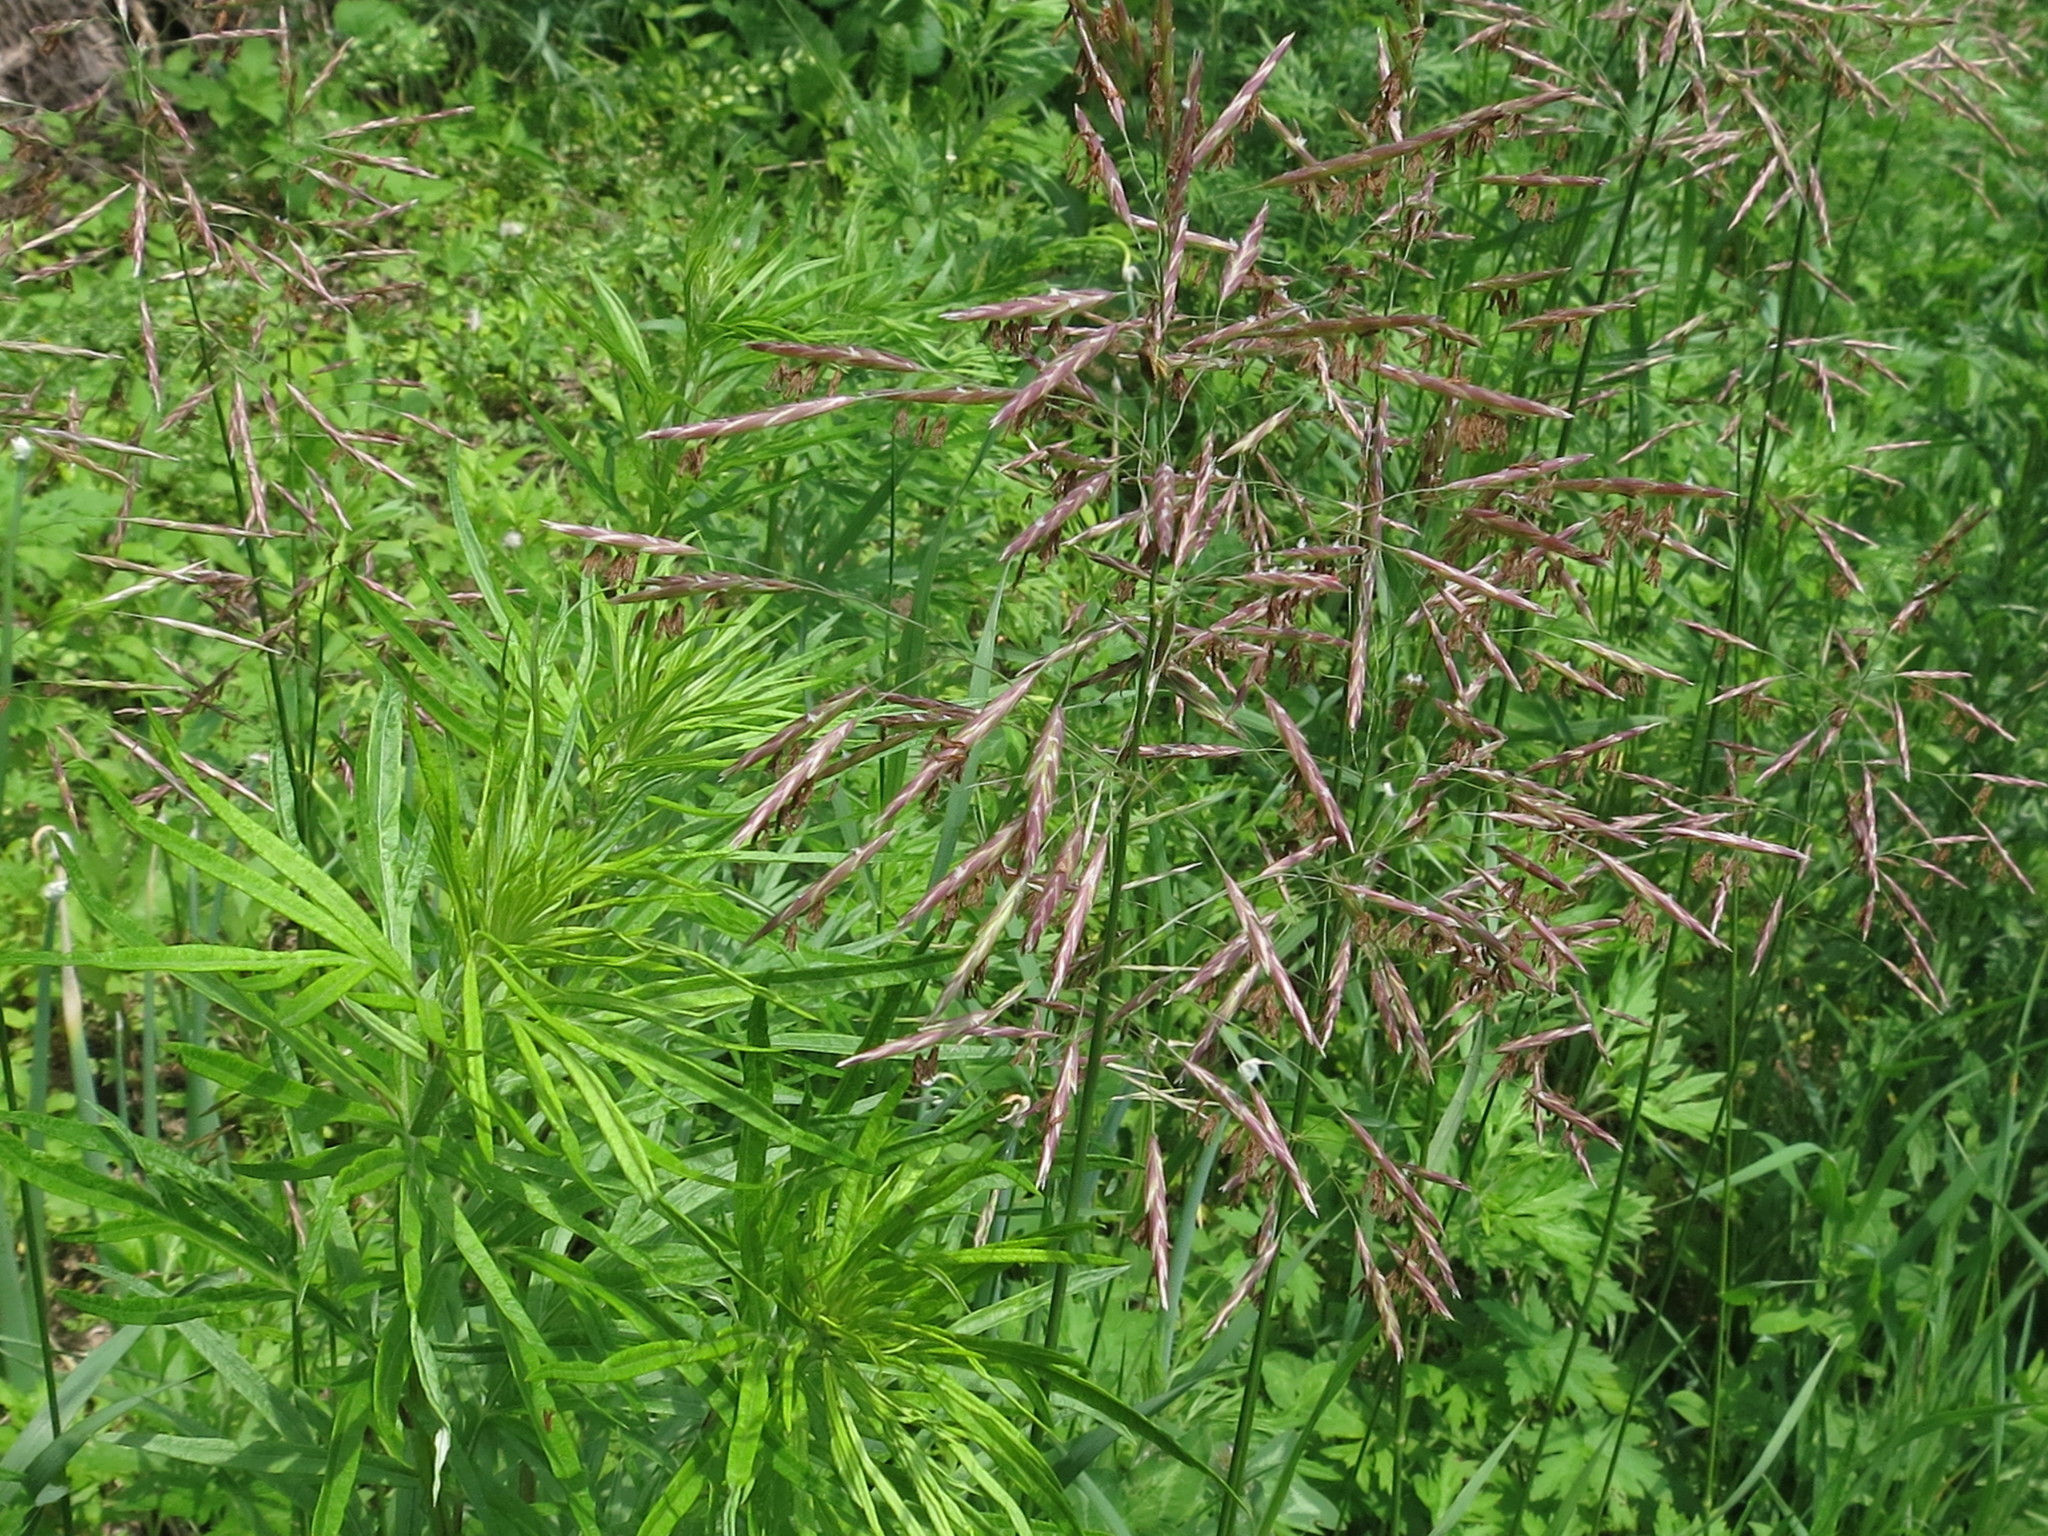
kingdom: Plantae
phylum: Tracheophyta
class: Liliopsida
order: Poales
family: Poaceae
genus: Bromus
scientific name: Bromus inermis
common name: Smooth brome
